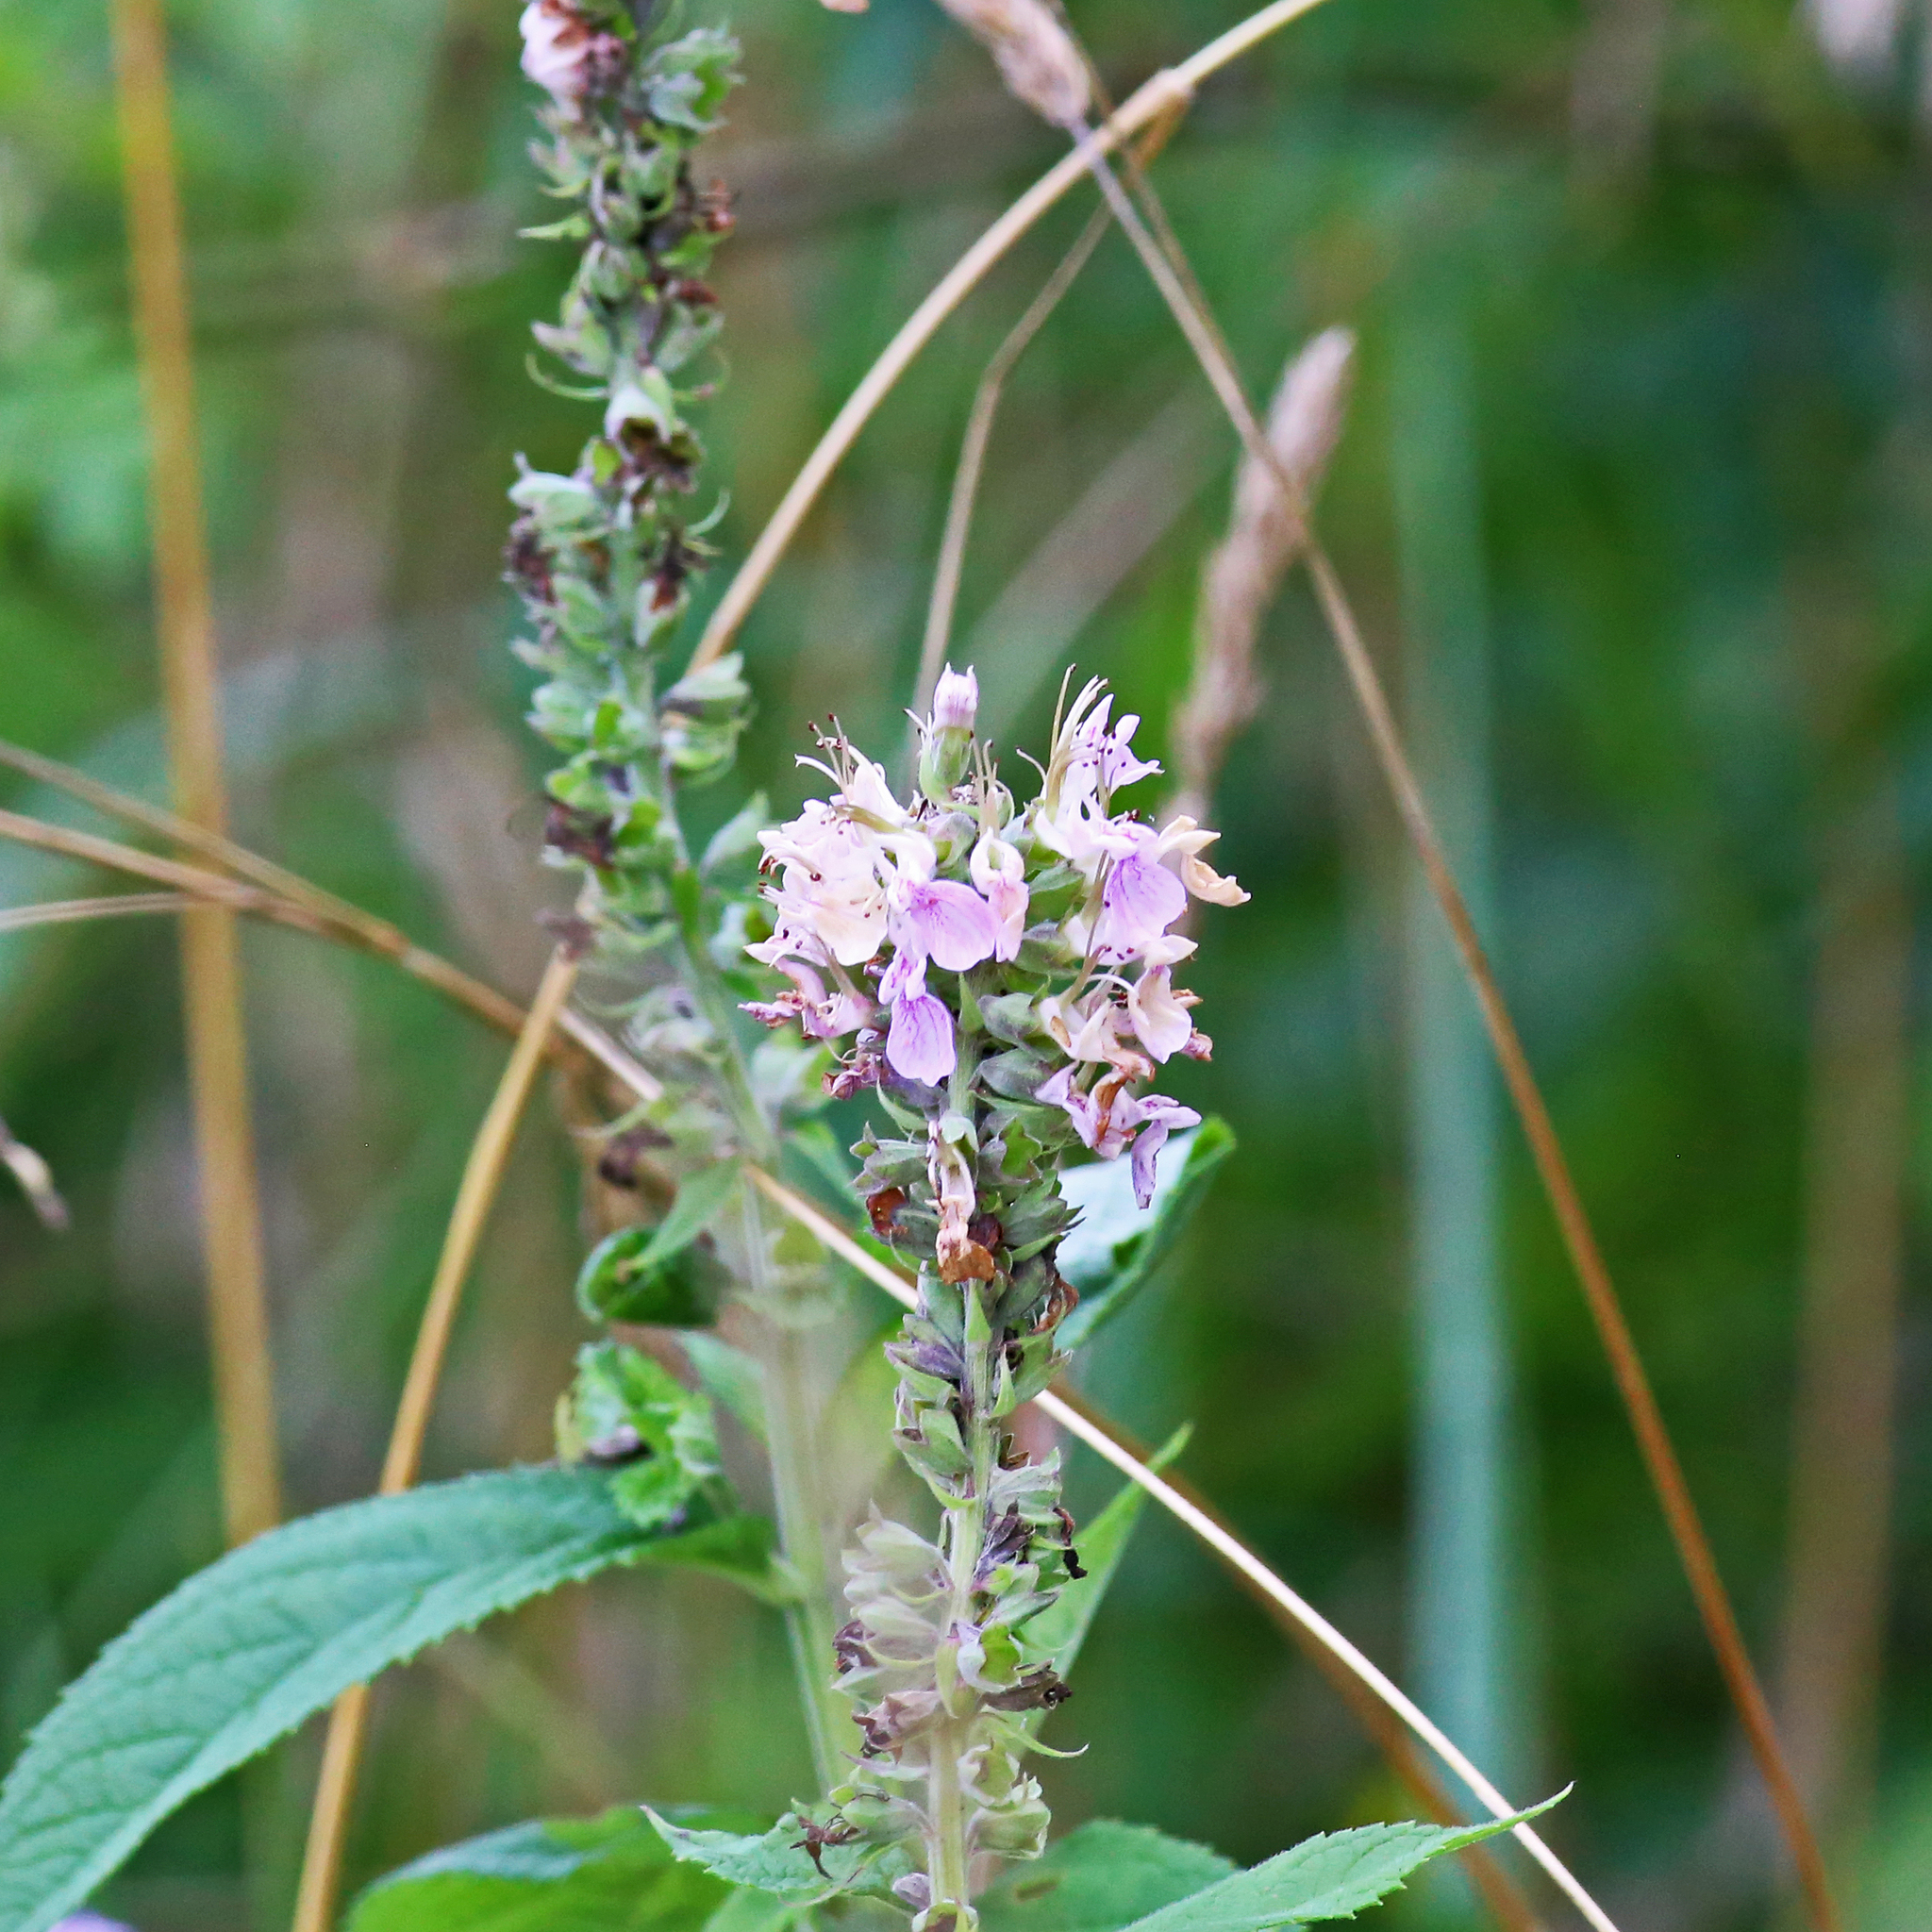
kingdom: Plantae
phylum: Tracheophyta
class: Magnoliopsida
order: Lamiales
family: Lamiaceae
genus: Teucrium
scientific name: Teucrium canadense
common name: American germander
